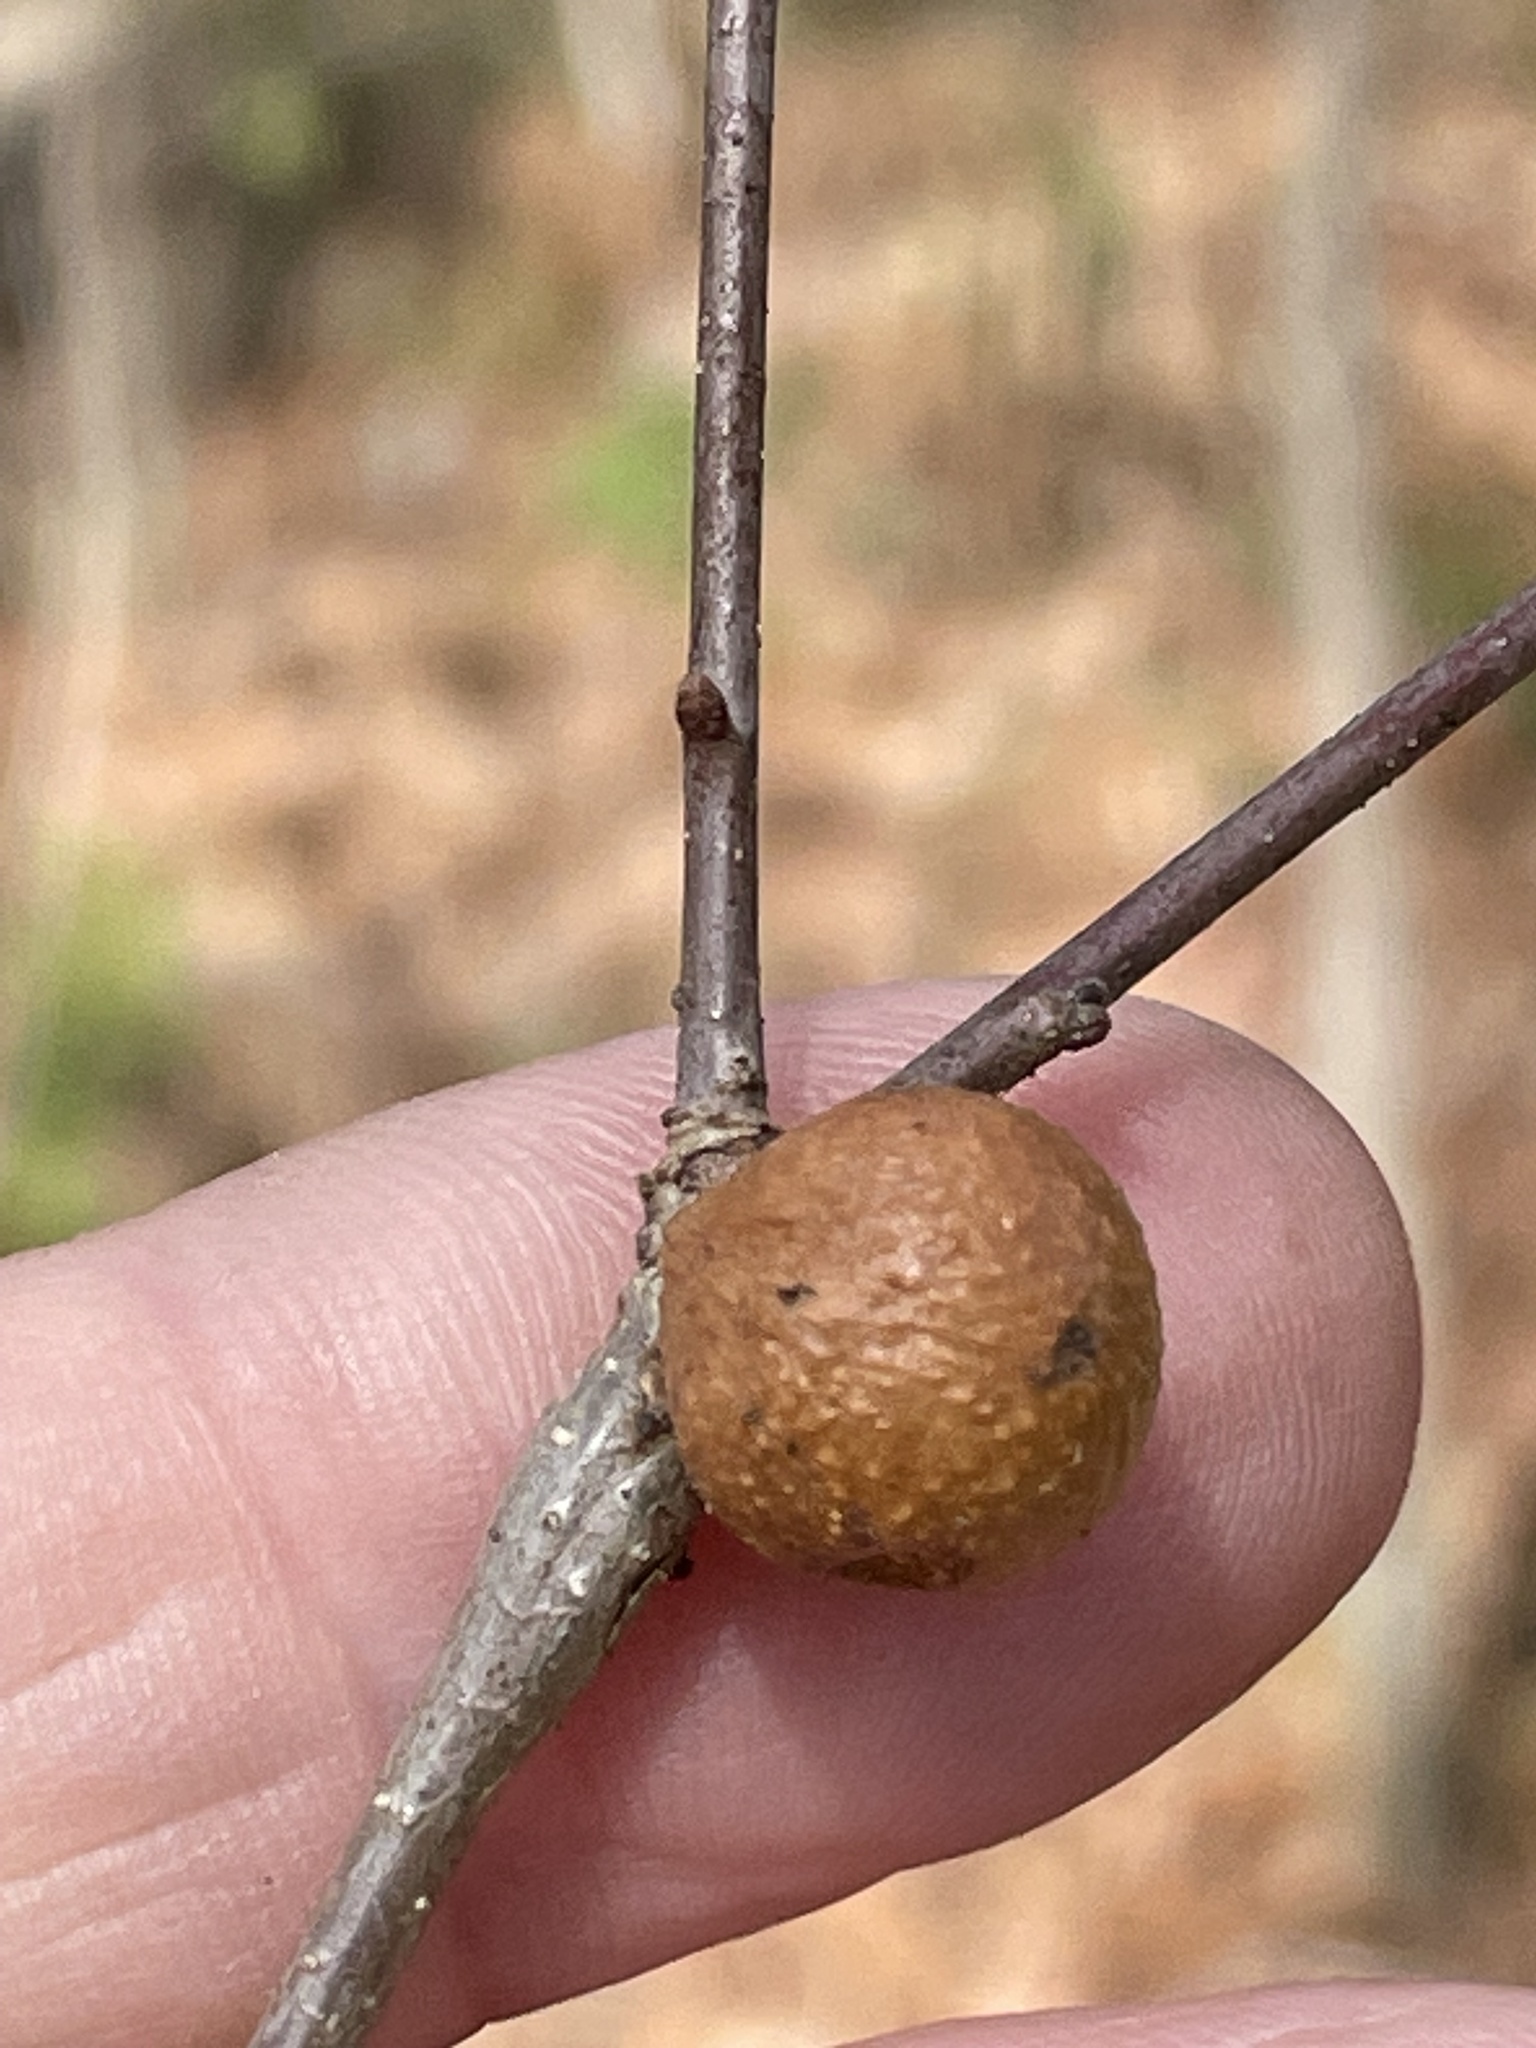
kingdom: Animalia
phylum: Arthropoda
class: Insecta
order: Hymenoptera
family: Cynipidae
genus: Disholcaspis
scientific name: Disholcaspis quercusglobulus
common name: Round bullet gall wasp
